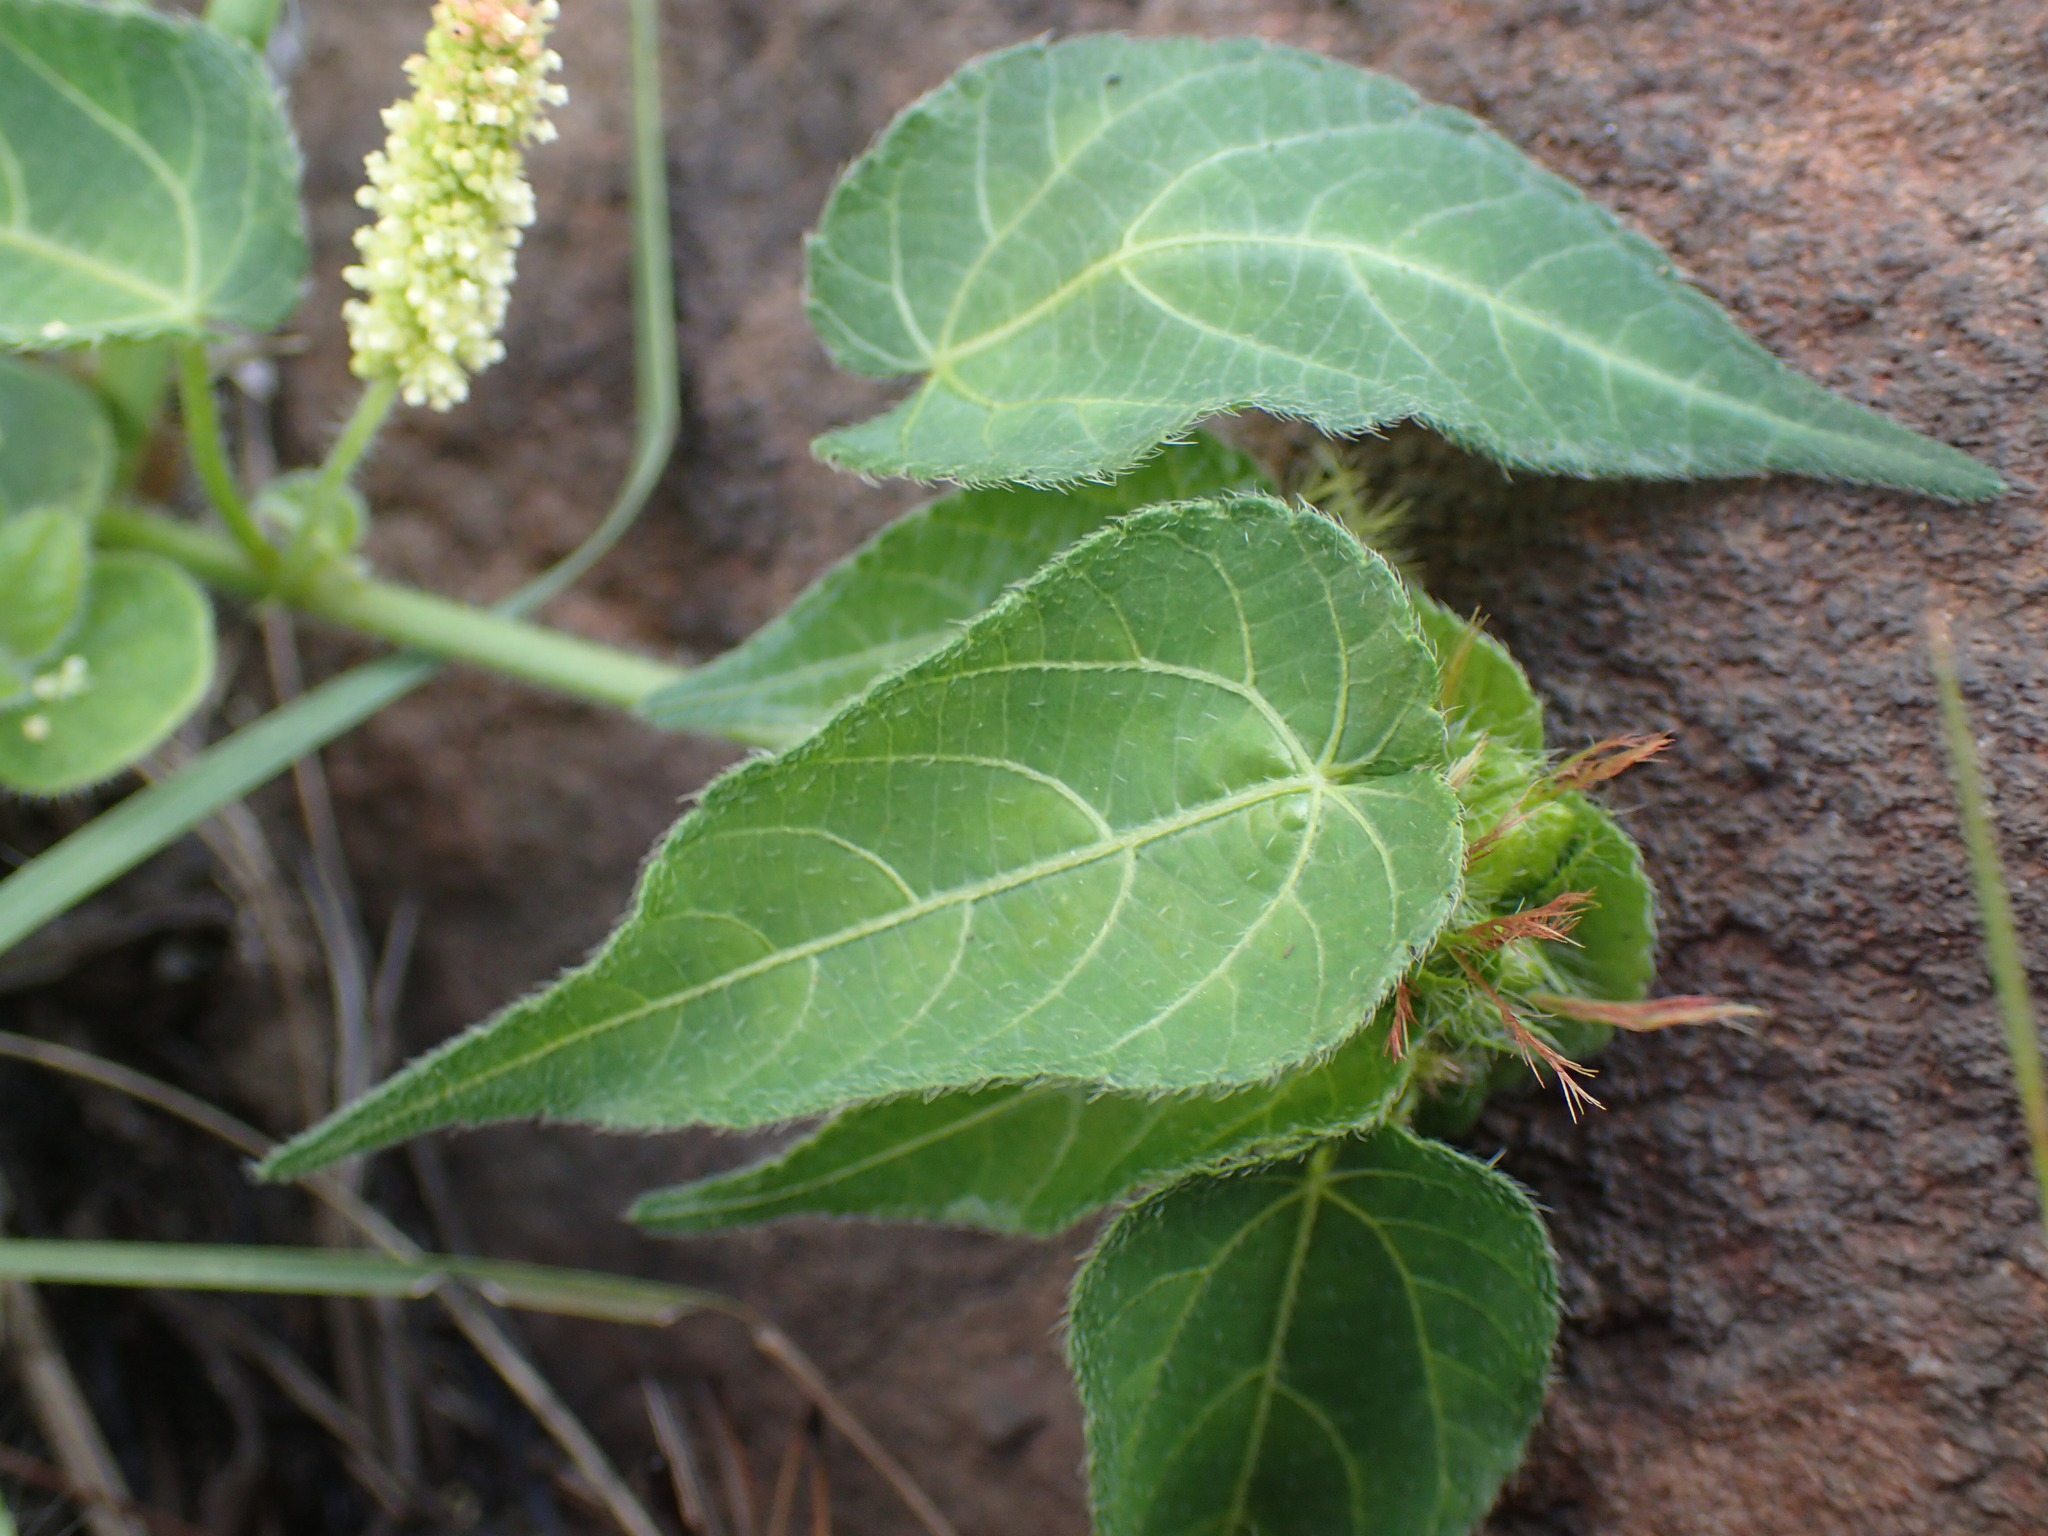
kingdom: Plantae
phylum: Tracheophyta
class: Magnoliopsida
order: Malpighiales
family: Euphorbiaceae
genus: Acalypha
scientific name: Acalypha petiolaris
